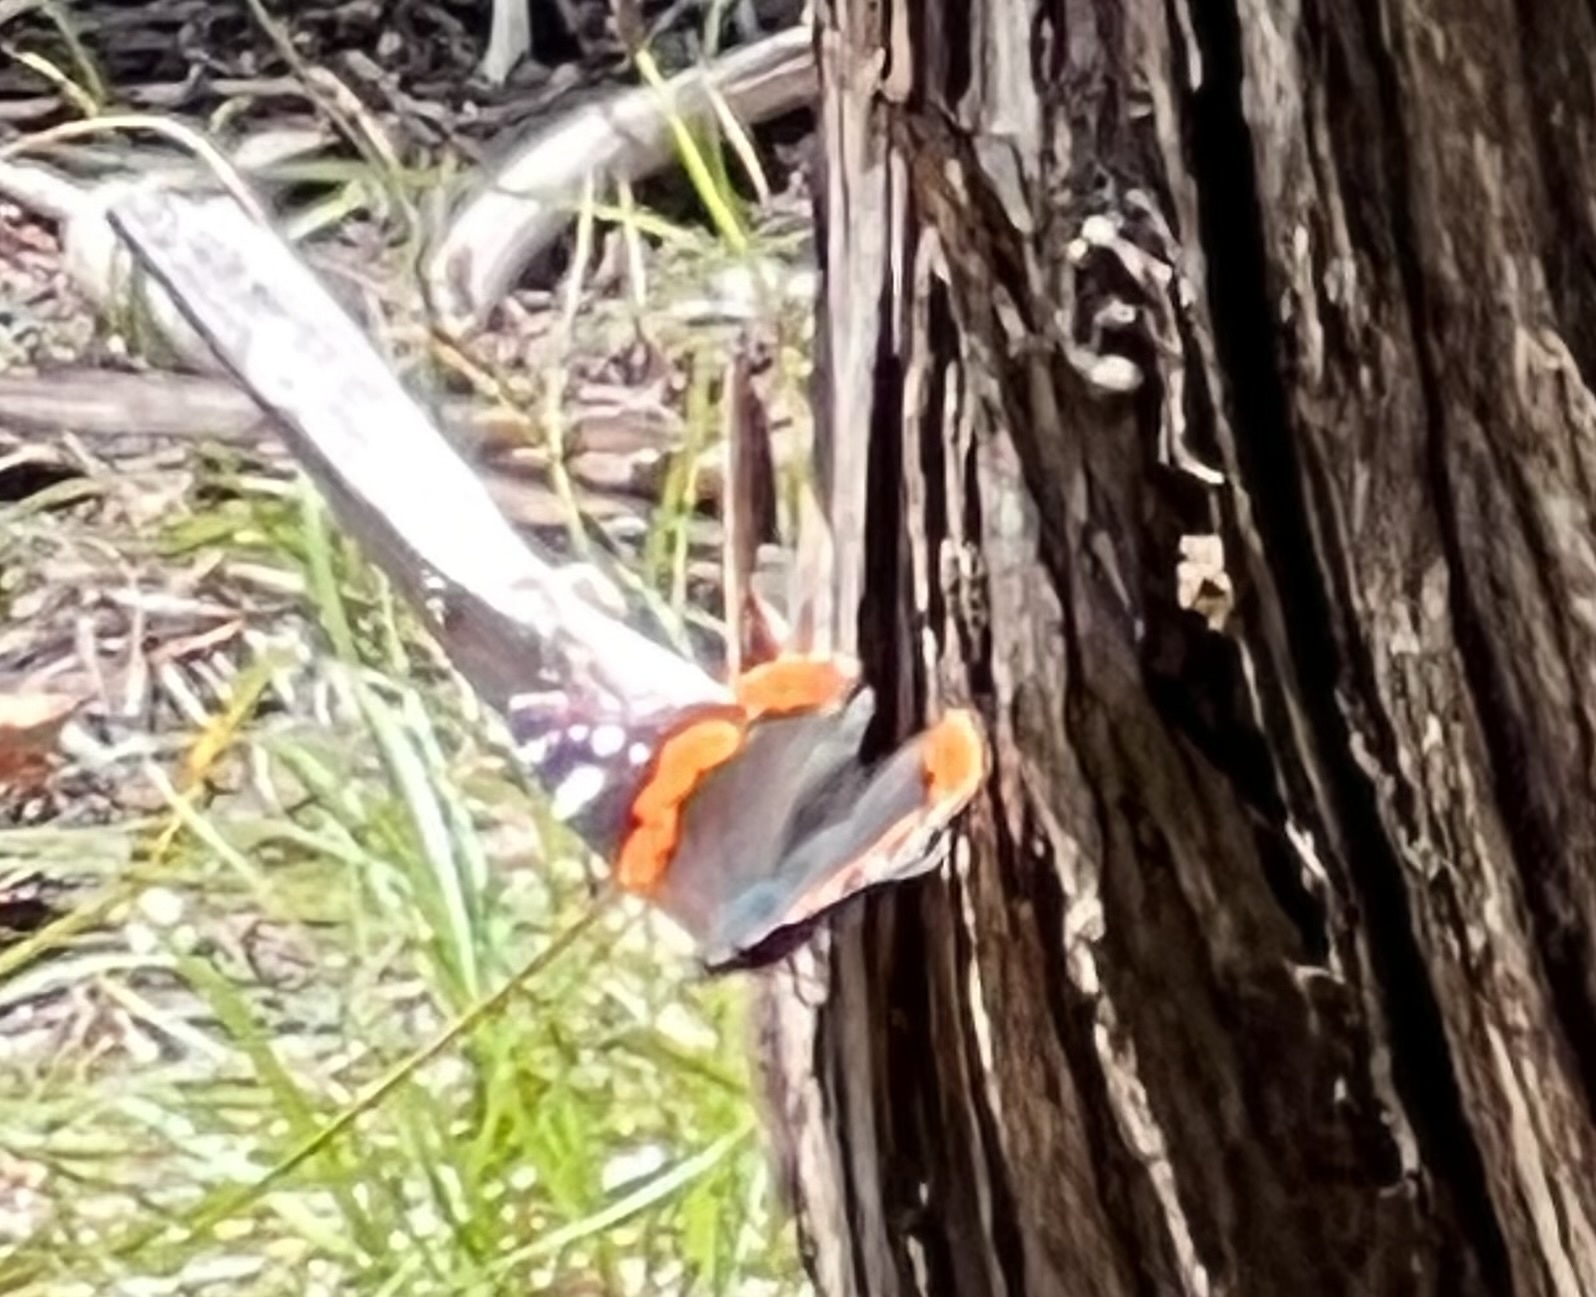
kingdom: Animalia
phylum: Arthropoda
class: Insecta
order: Lepidoptera
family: Nymphalidae
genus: Vanessa
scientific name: Vanessa atalanta
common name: Red admiral
